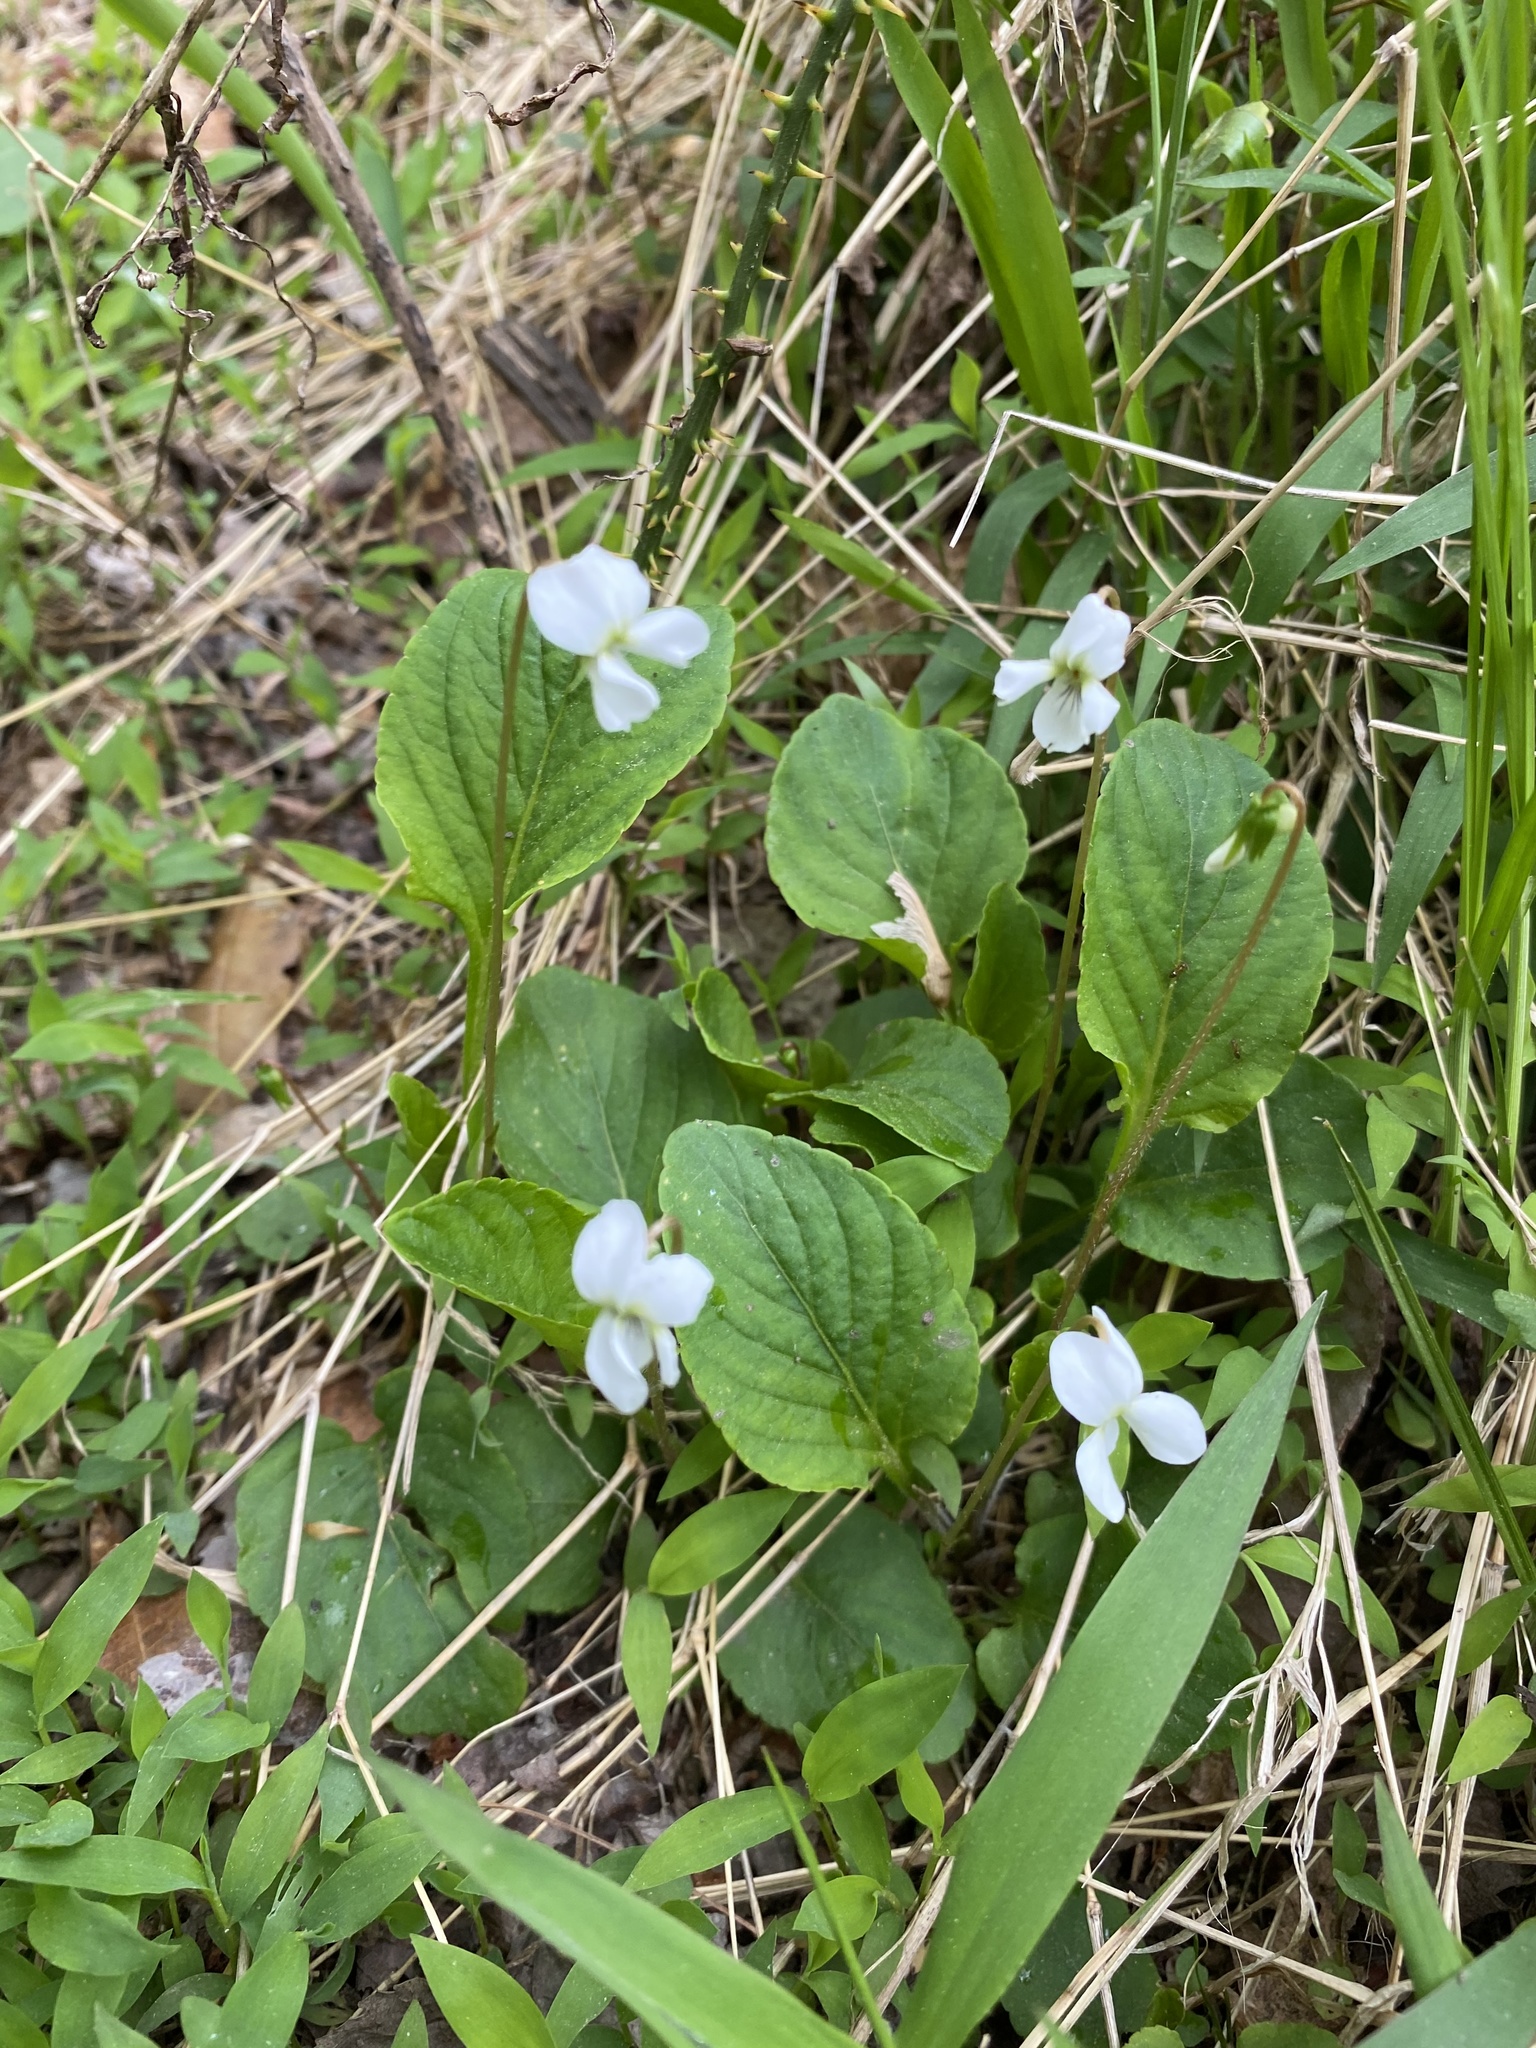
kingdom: Plantae
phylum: Tracheophyta
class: Magnoliopsida
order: Malpighiales
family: Violaceae
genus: Viola
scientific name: Viola primulifolia
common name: Primrose-leaf violet
